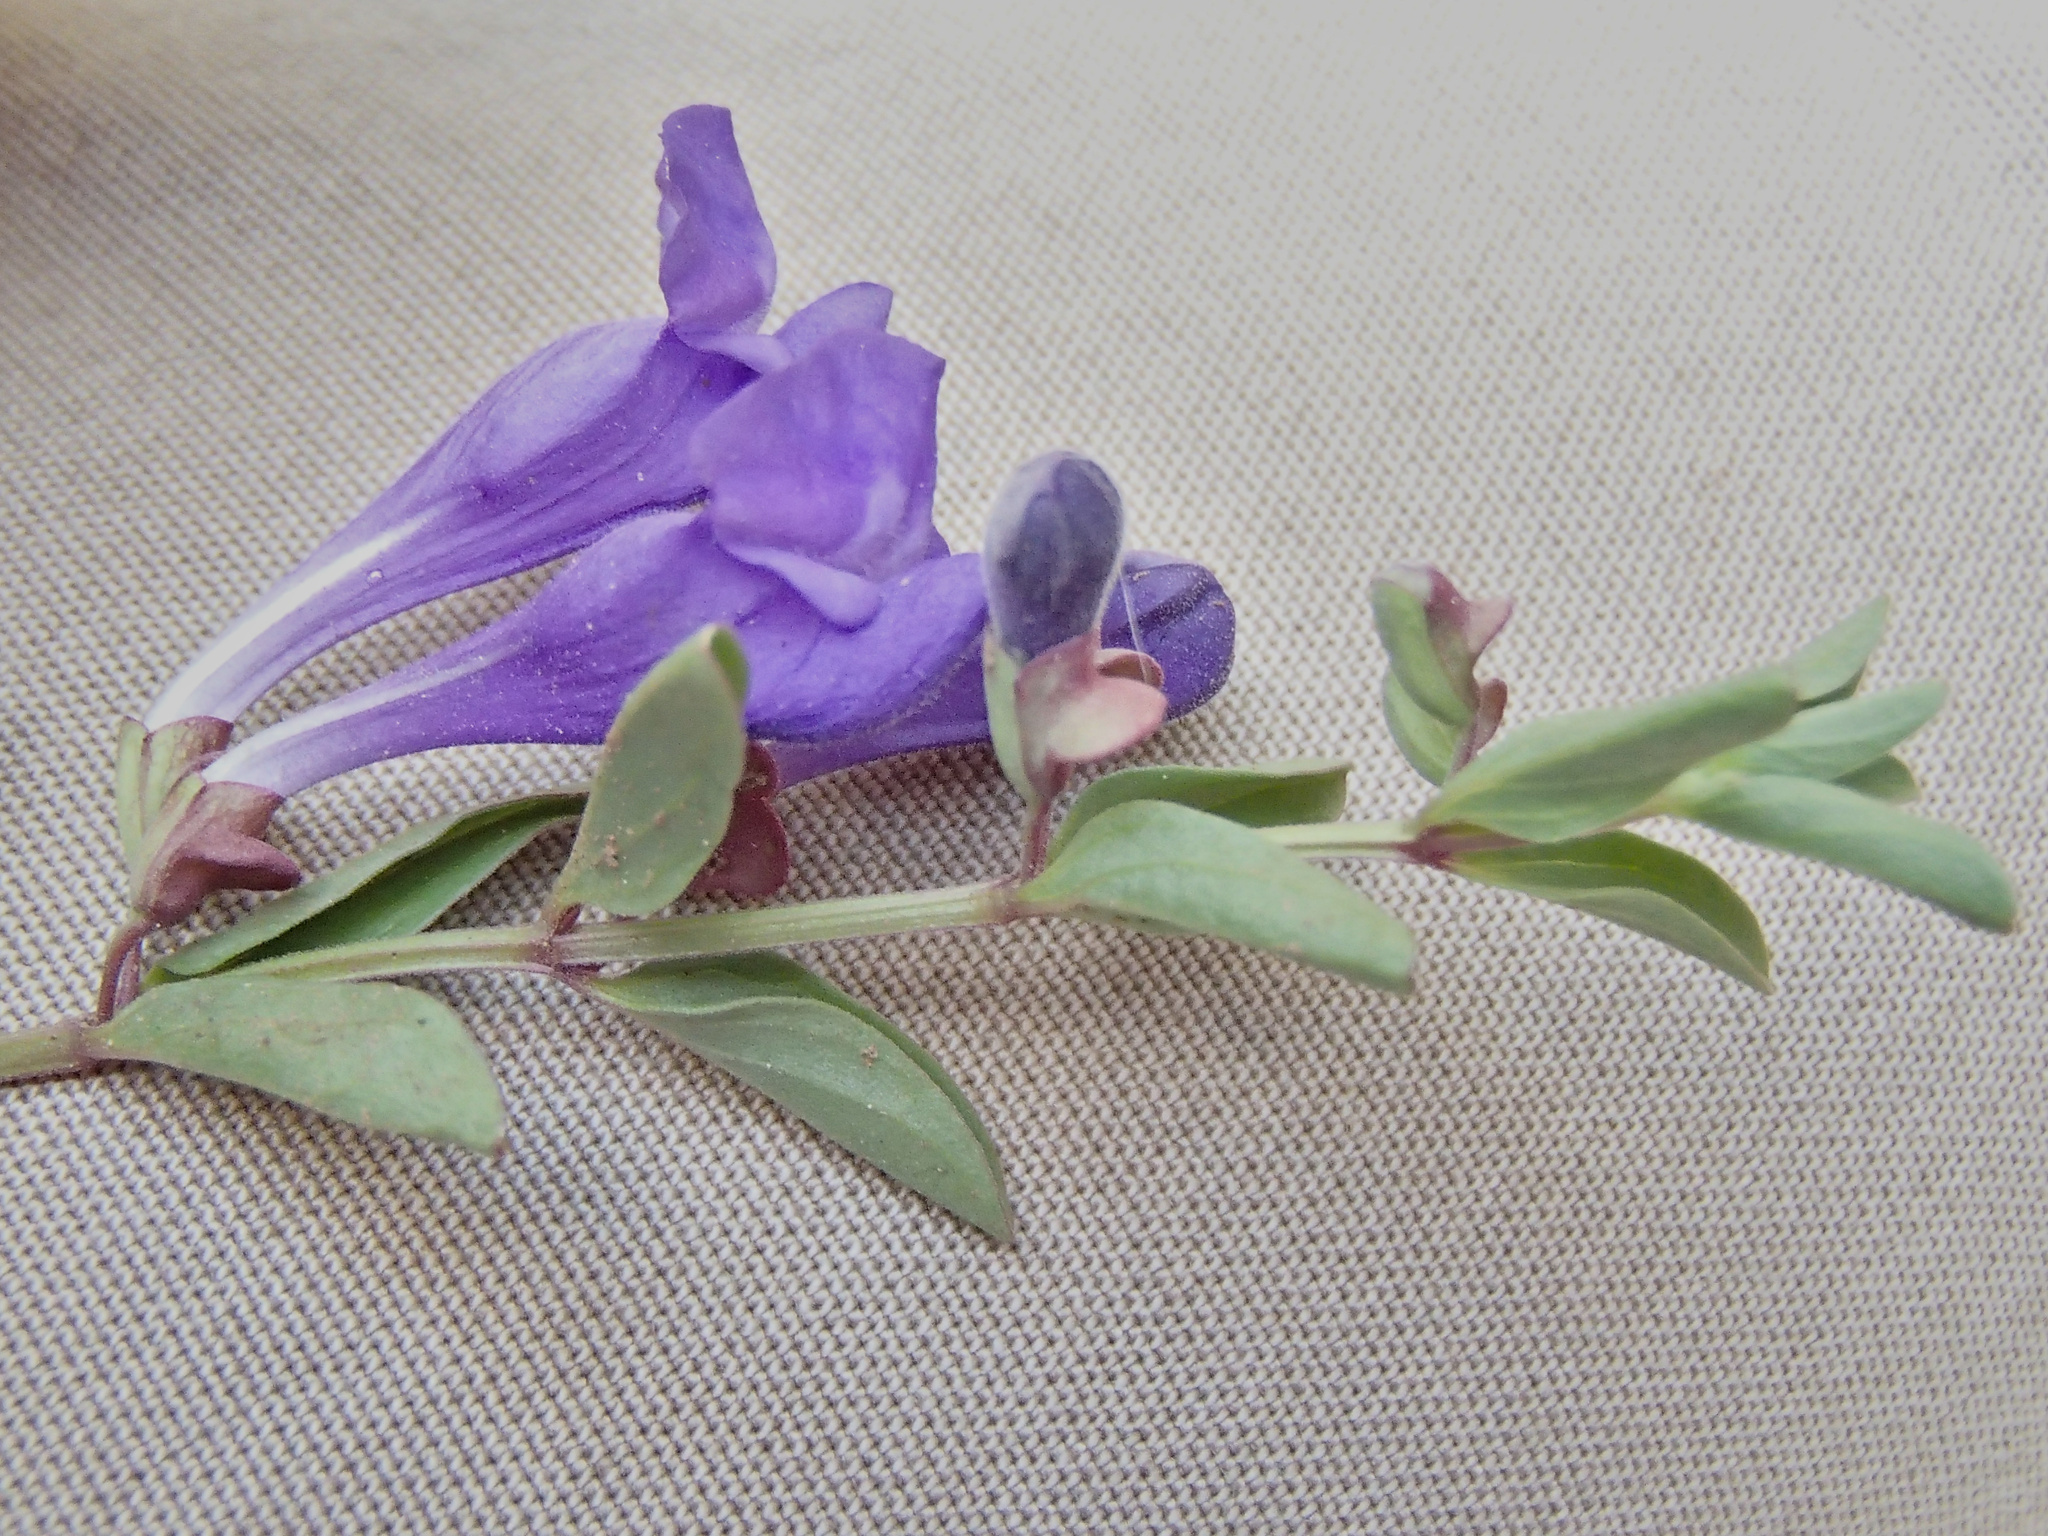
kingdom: Plantae
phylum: Tracheophyta
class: Magnoliopsida
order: Lamiales
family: Lamiaceae
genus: Scutellaria
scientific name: Scutellaria angustifolia
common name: Narrow-leaved skullcap
